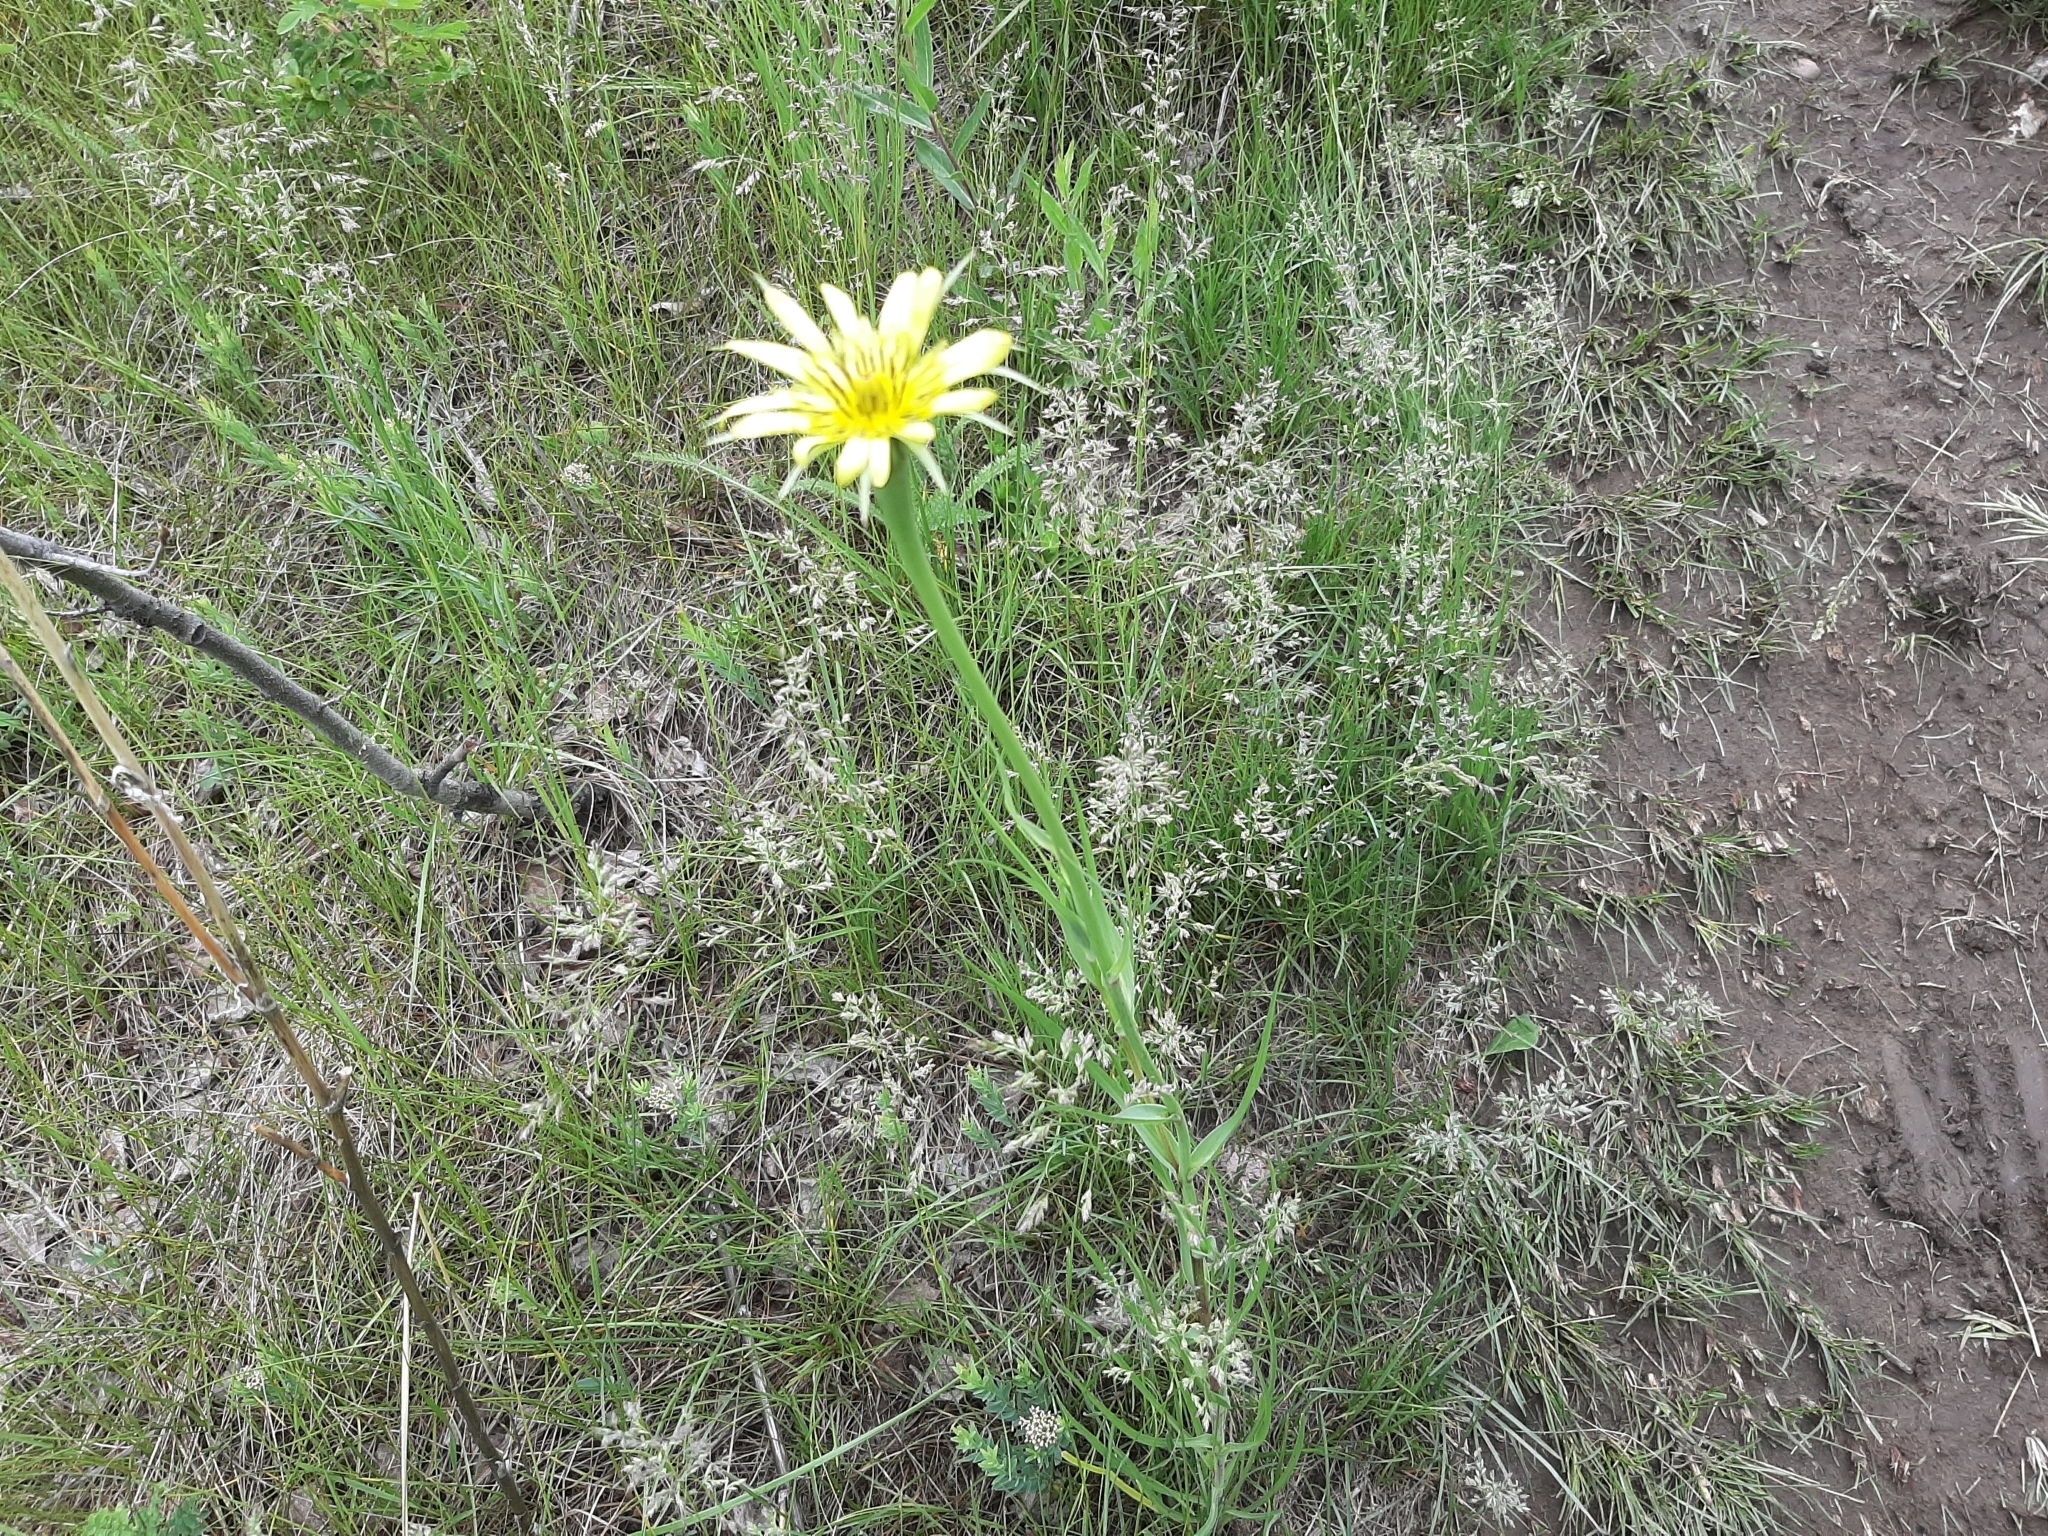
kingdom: Plantae
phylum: Tracheophyta
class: Magnoliopsida
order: Asterales
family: Asteraceae
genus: Tragopogon
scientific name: Tragopogon dubius
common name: Yellow salsify
